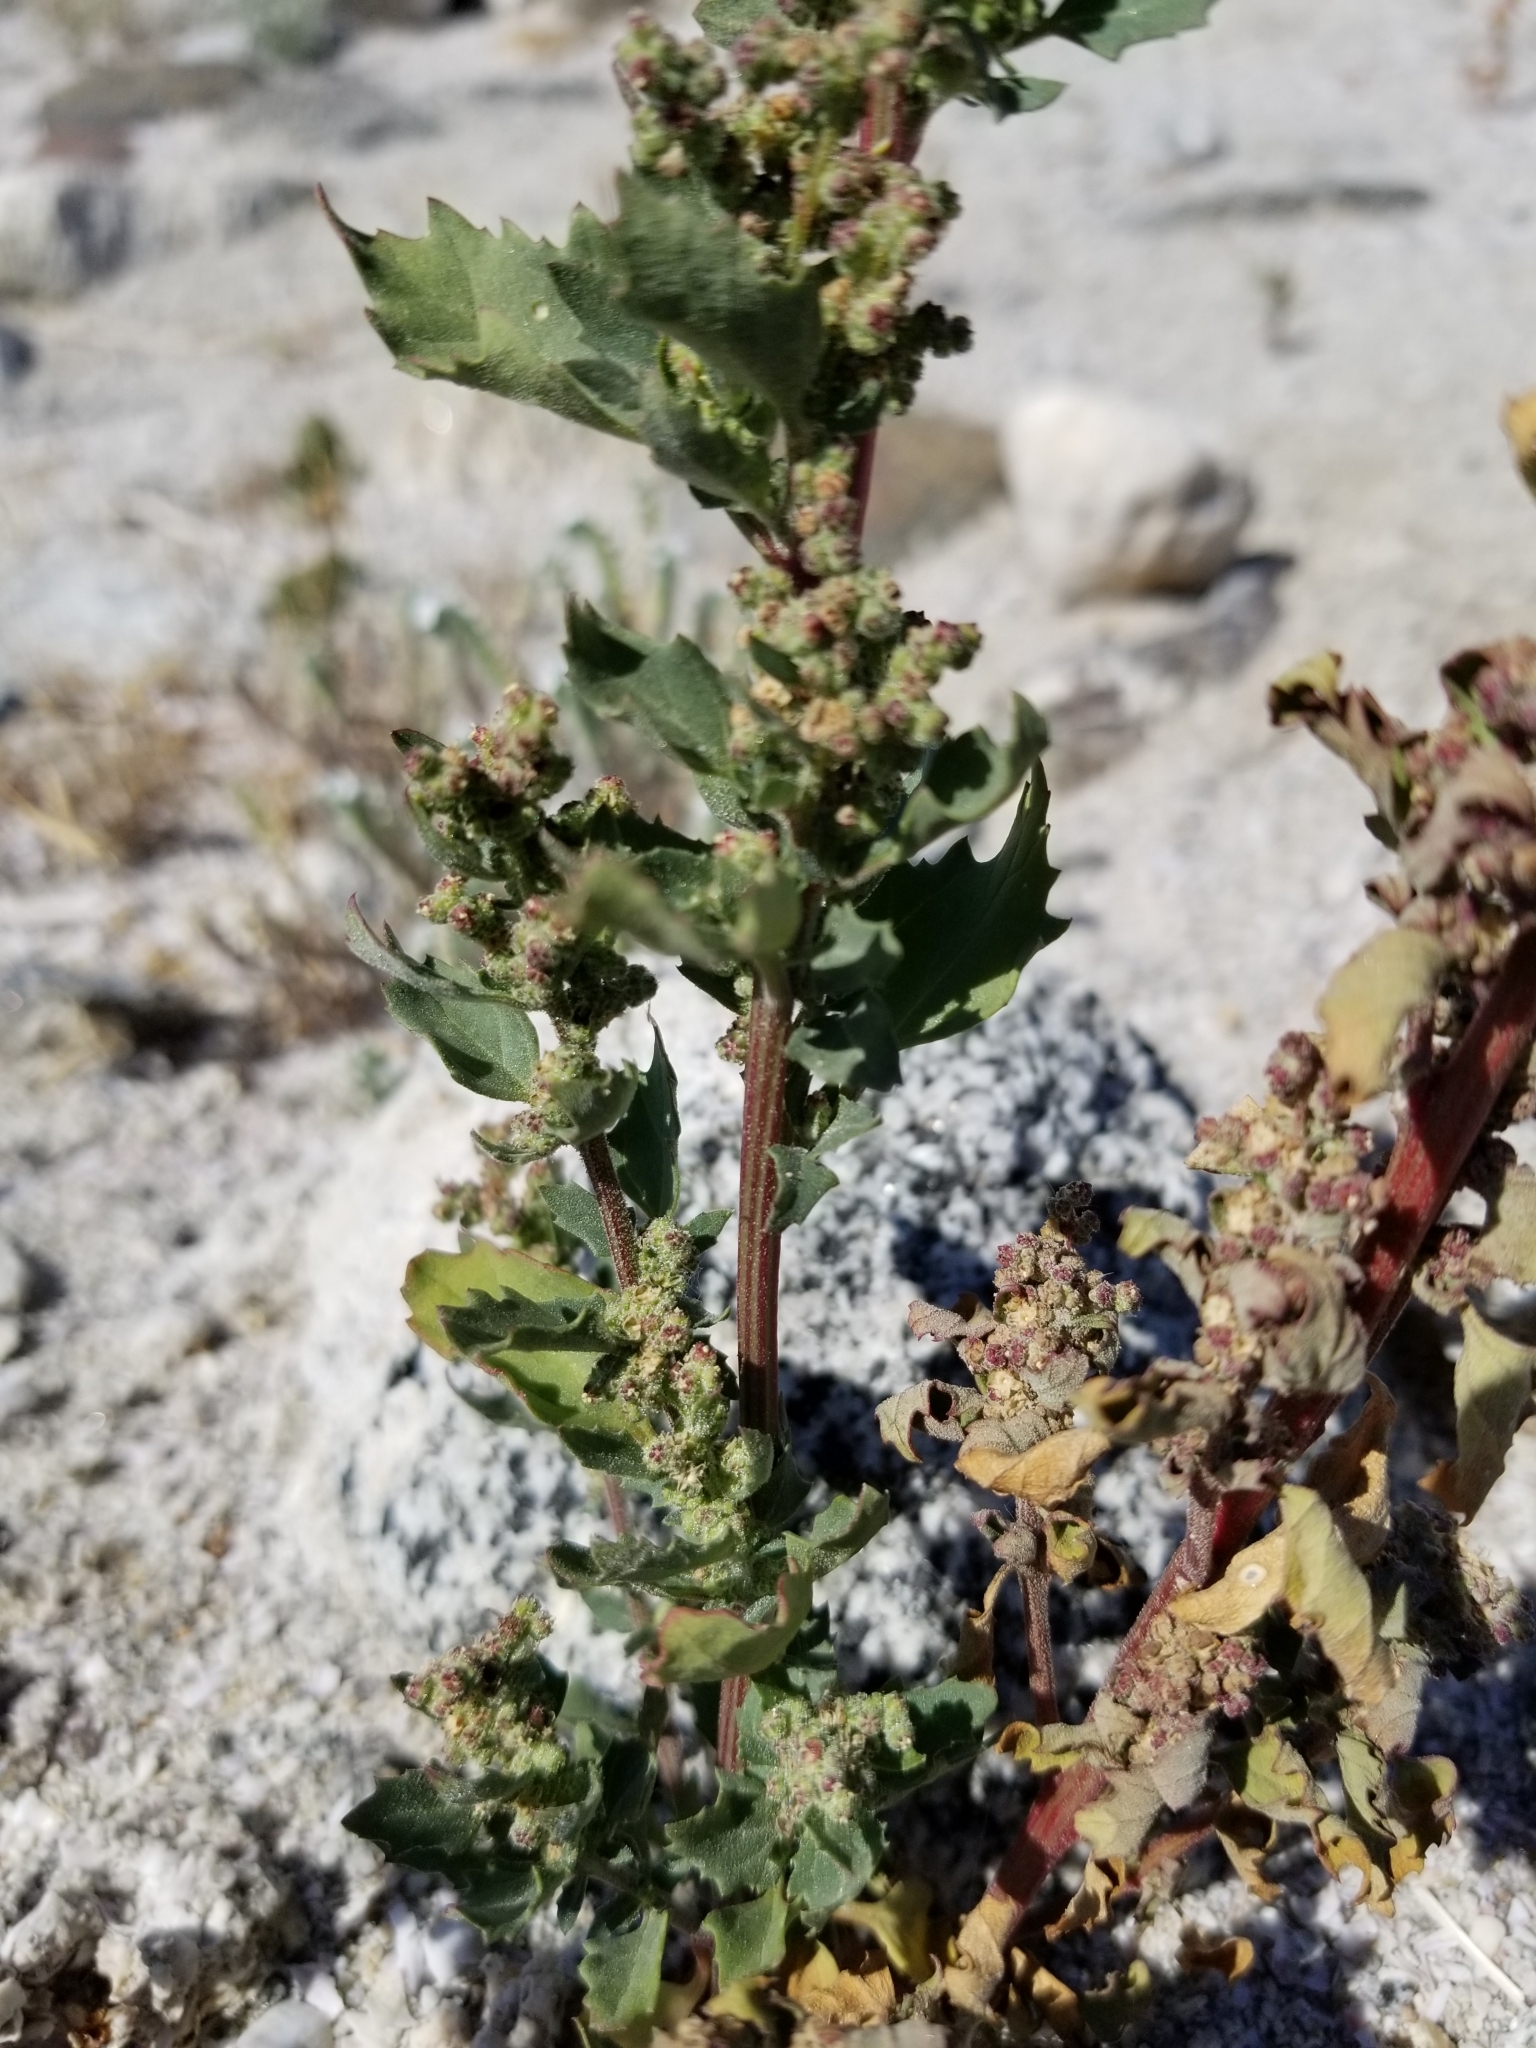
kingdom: Plantae
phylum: Tracheophyta
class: Magnoliopsida
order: Caryophyllales
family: Amaranthaceae
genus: Chenopodiastrum
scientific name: Chenopodiastrum murale
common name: Sowbane
